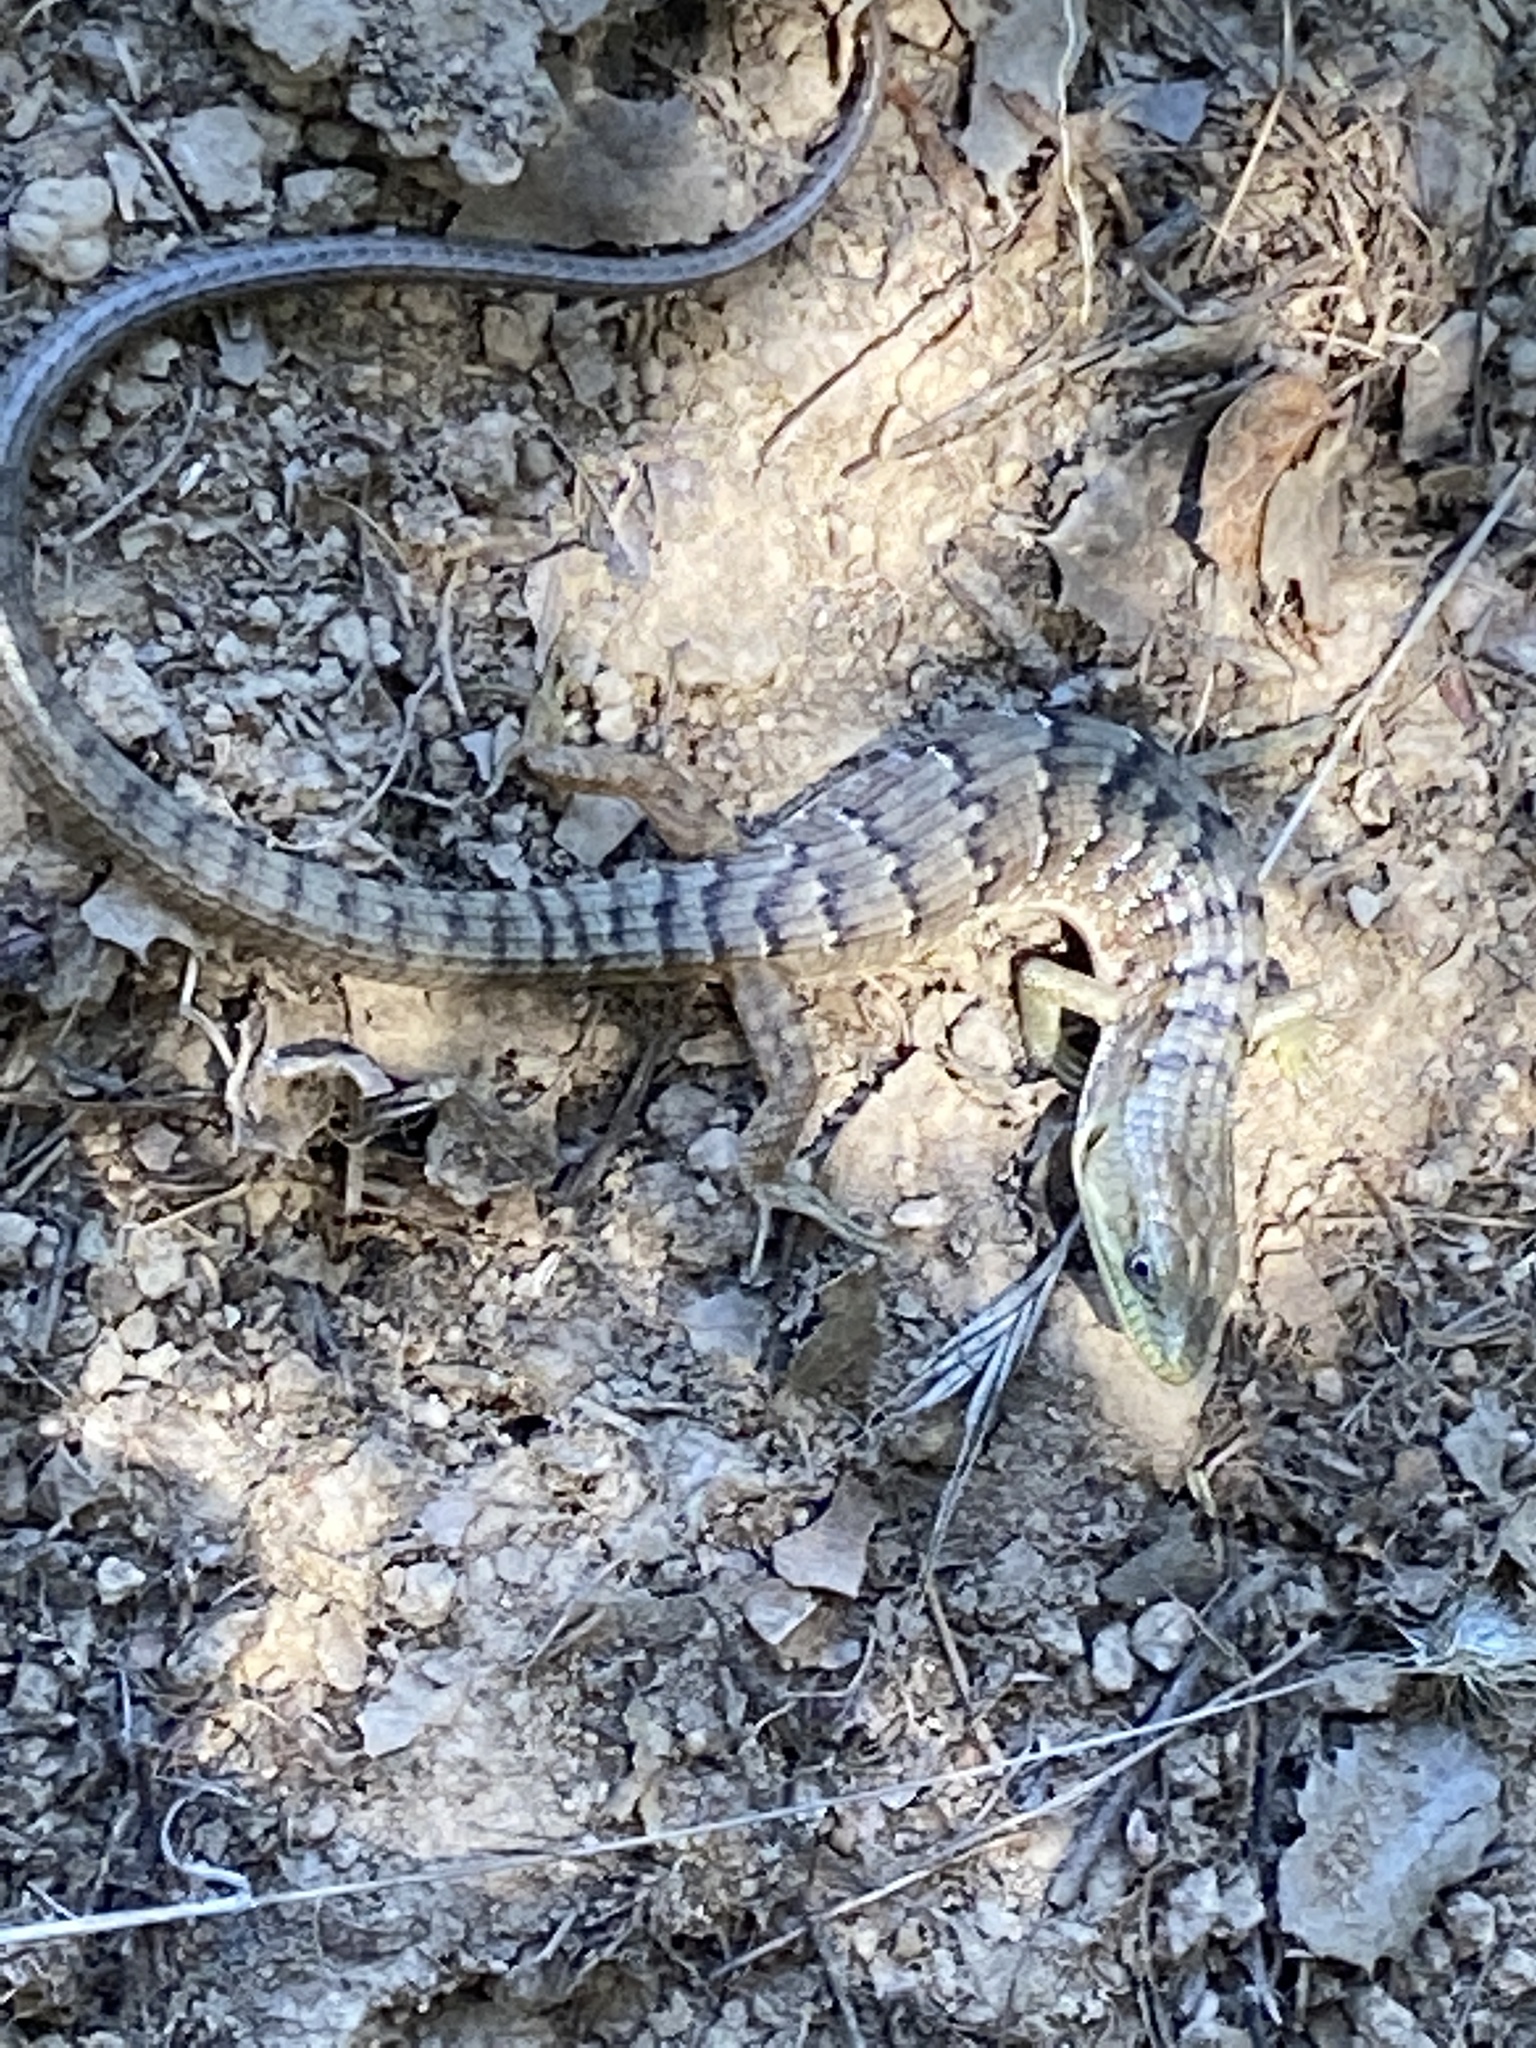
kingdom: Animalia
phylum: Chordata
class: Squamata
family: Anguidae
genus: Elgaria
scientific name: Elgaria multicarinata
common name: Southern alligator lizard
